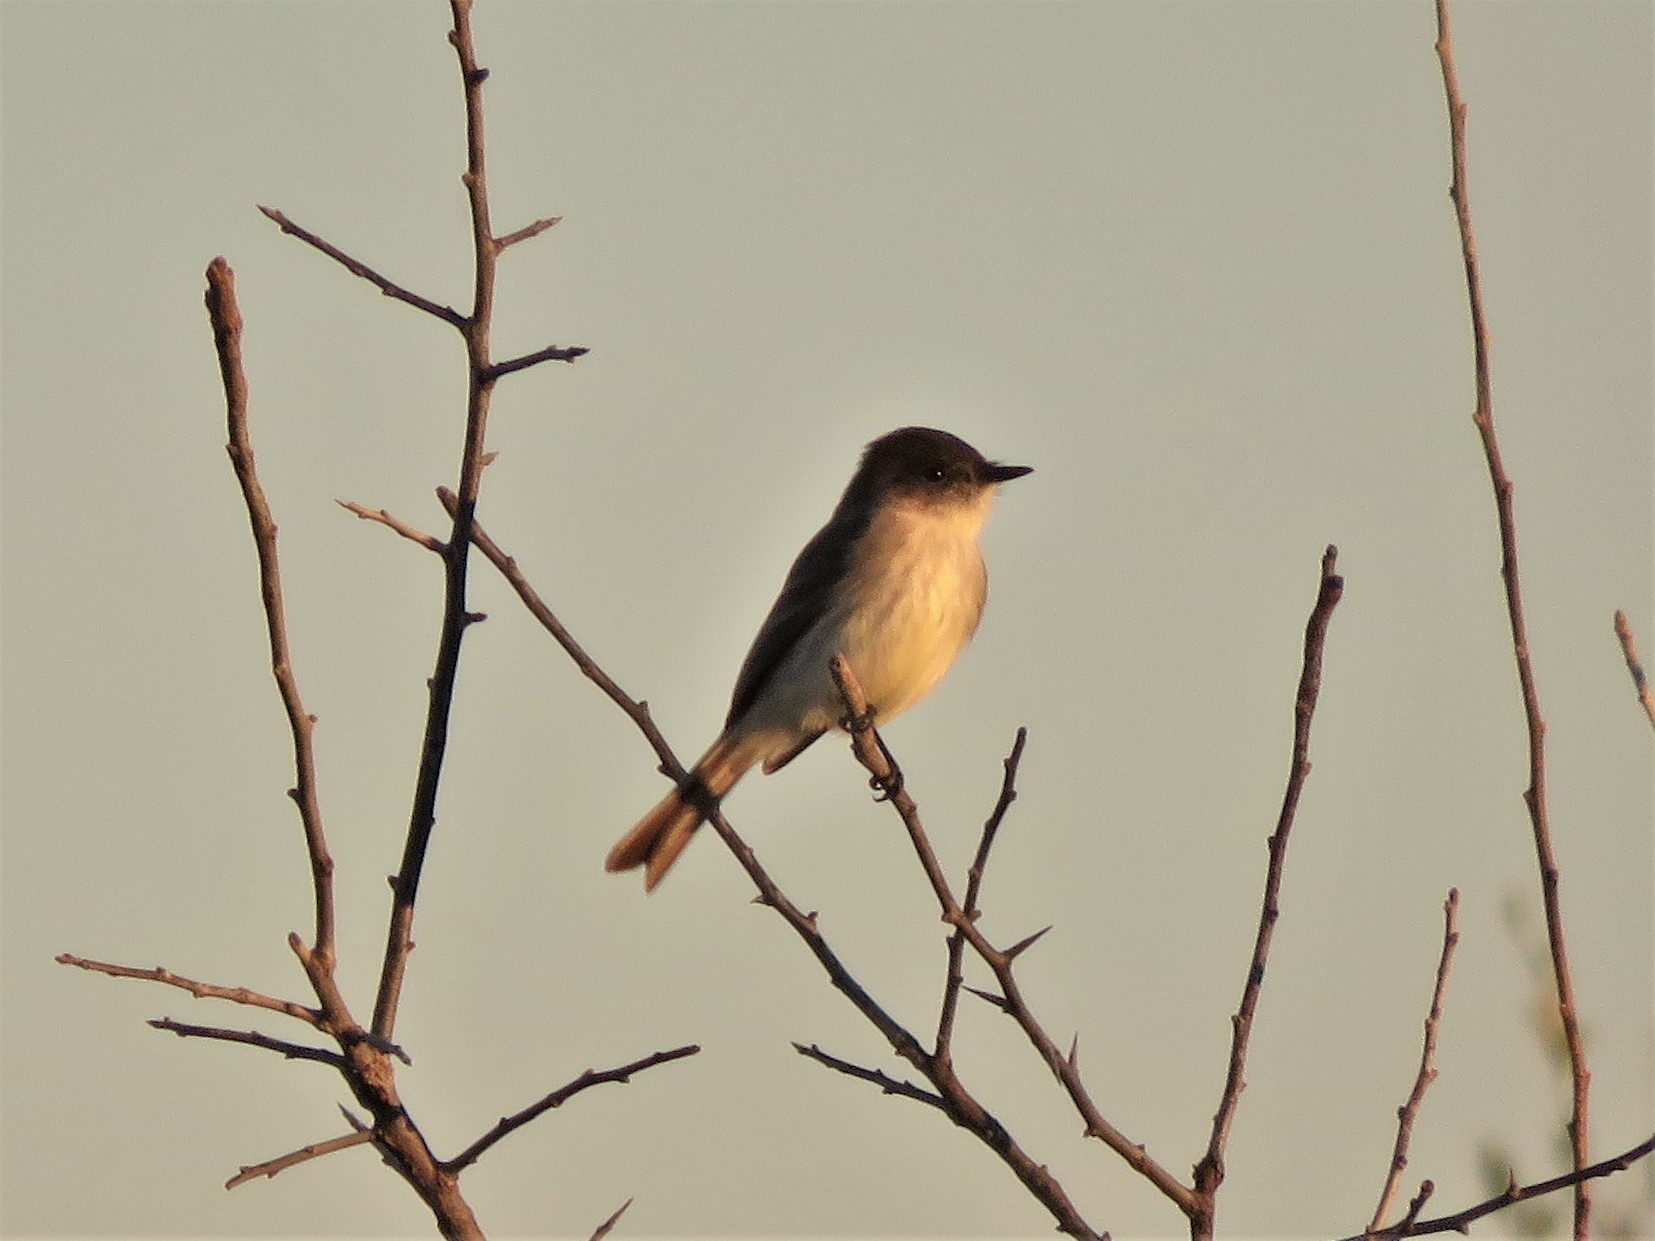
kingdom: Animalia
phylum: Chordata
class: Aves
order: Passeriformes
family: Tyrannidae
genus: Sayornis
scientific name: Sayornis phoebe
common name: Eastern phoebe
